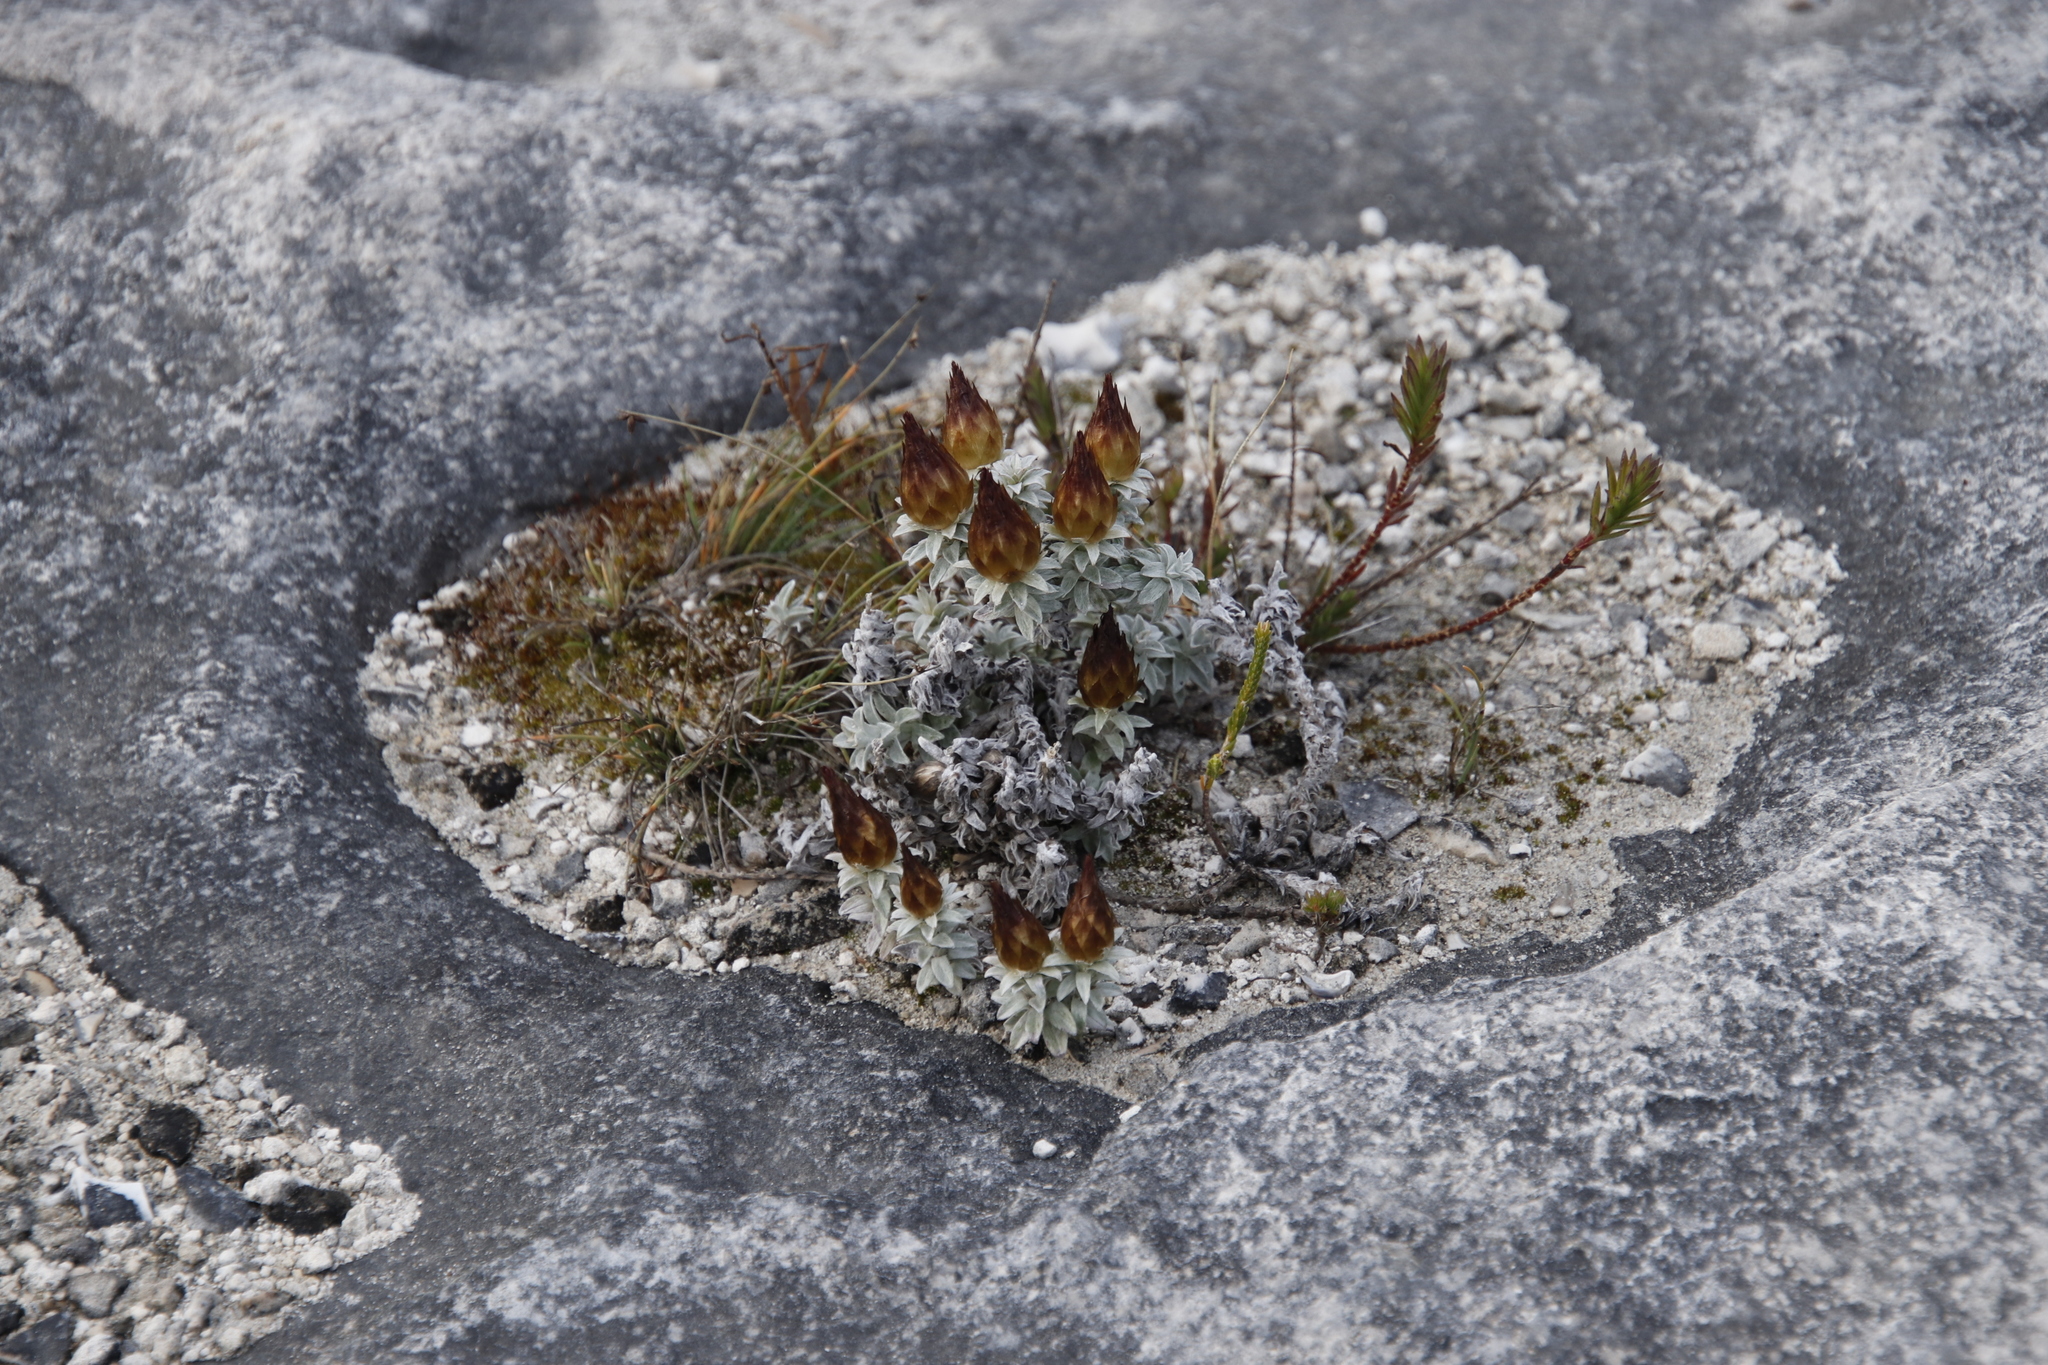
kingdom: Plantae
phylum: Tracheophyta
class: Magnoliopsida
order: Asterales
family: Asteraceae
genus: Helichrysum
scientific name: Helichrysum retortum
